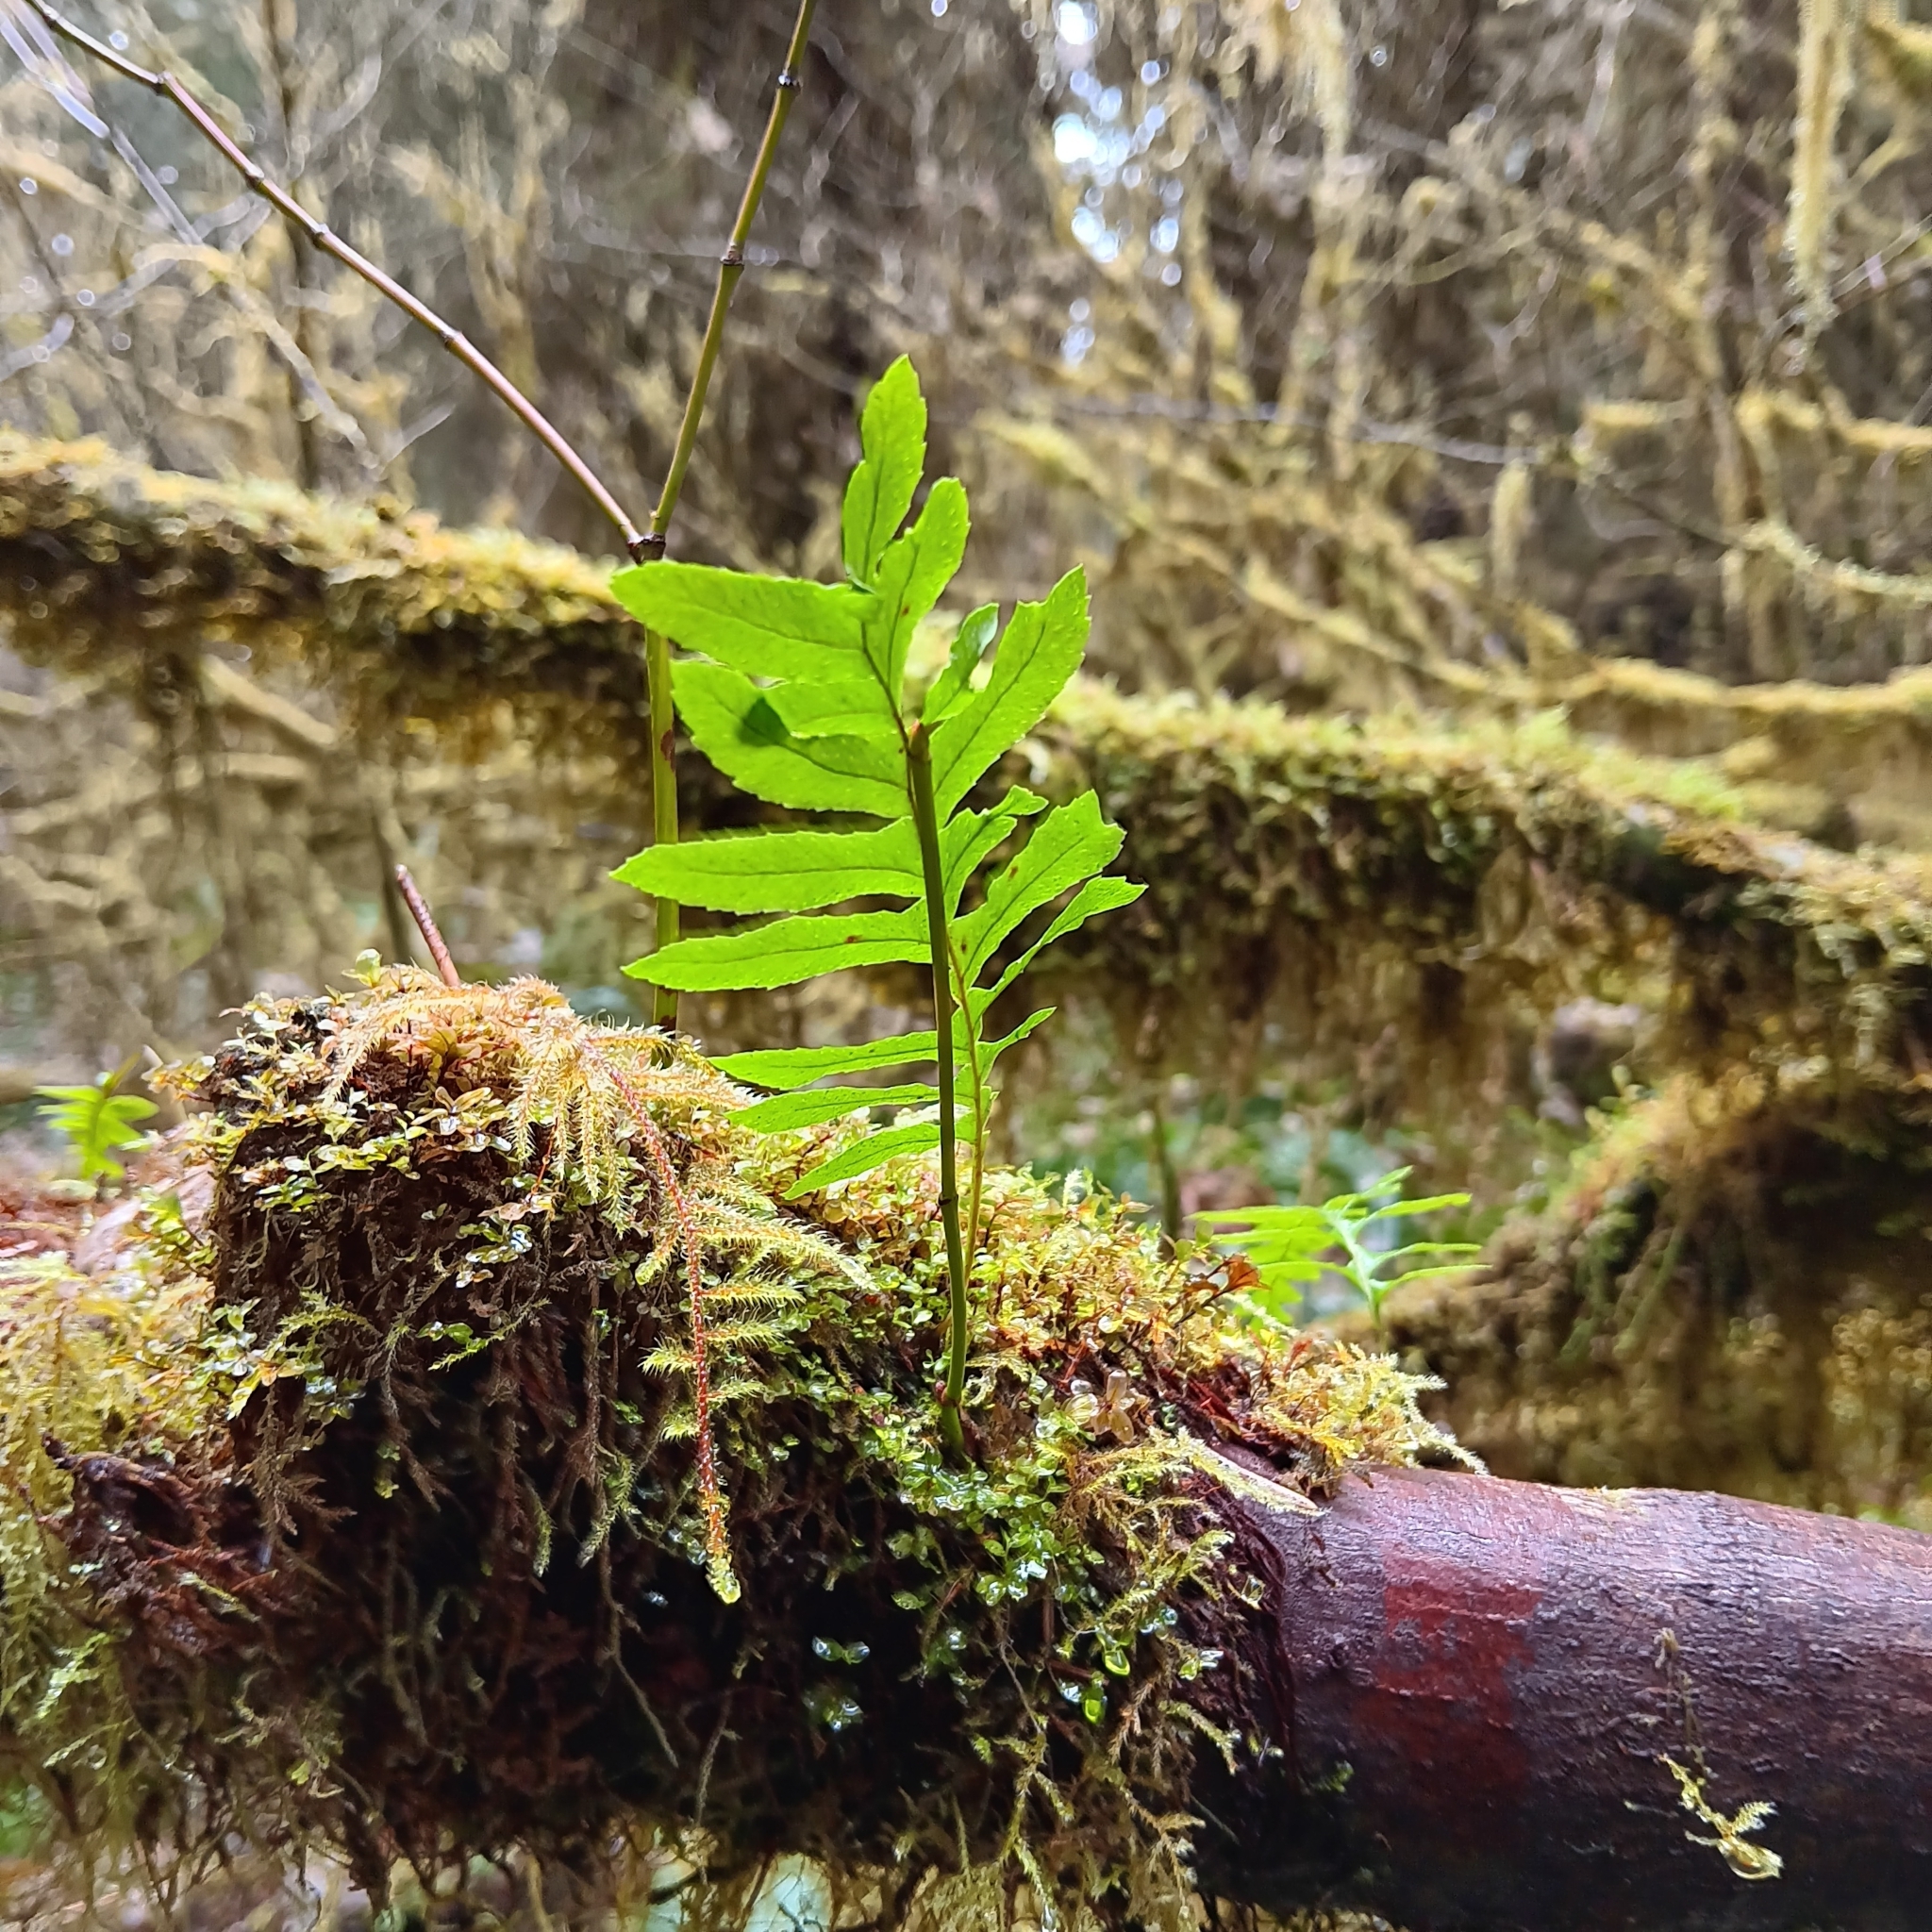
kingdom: Plantae
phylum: Tracheophyta
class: Polypodiopsida
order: Polypodiales
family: Polypodiaceae
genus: Polypodium
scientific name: Polypodium glycyrrhiza
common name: Licorice fern
